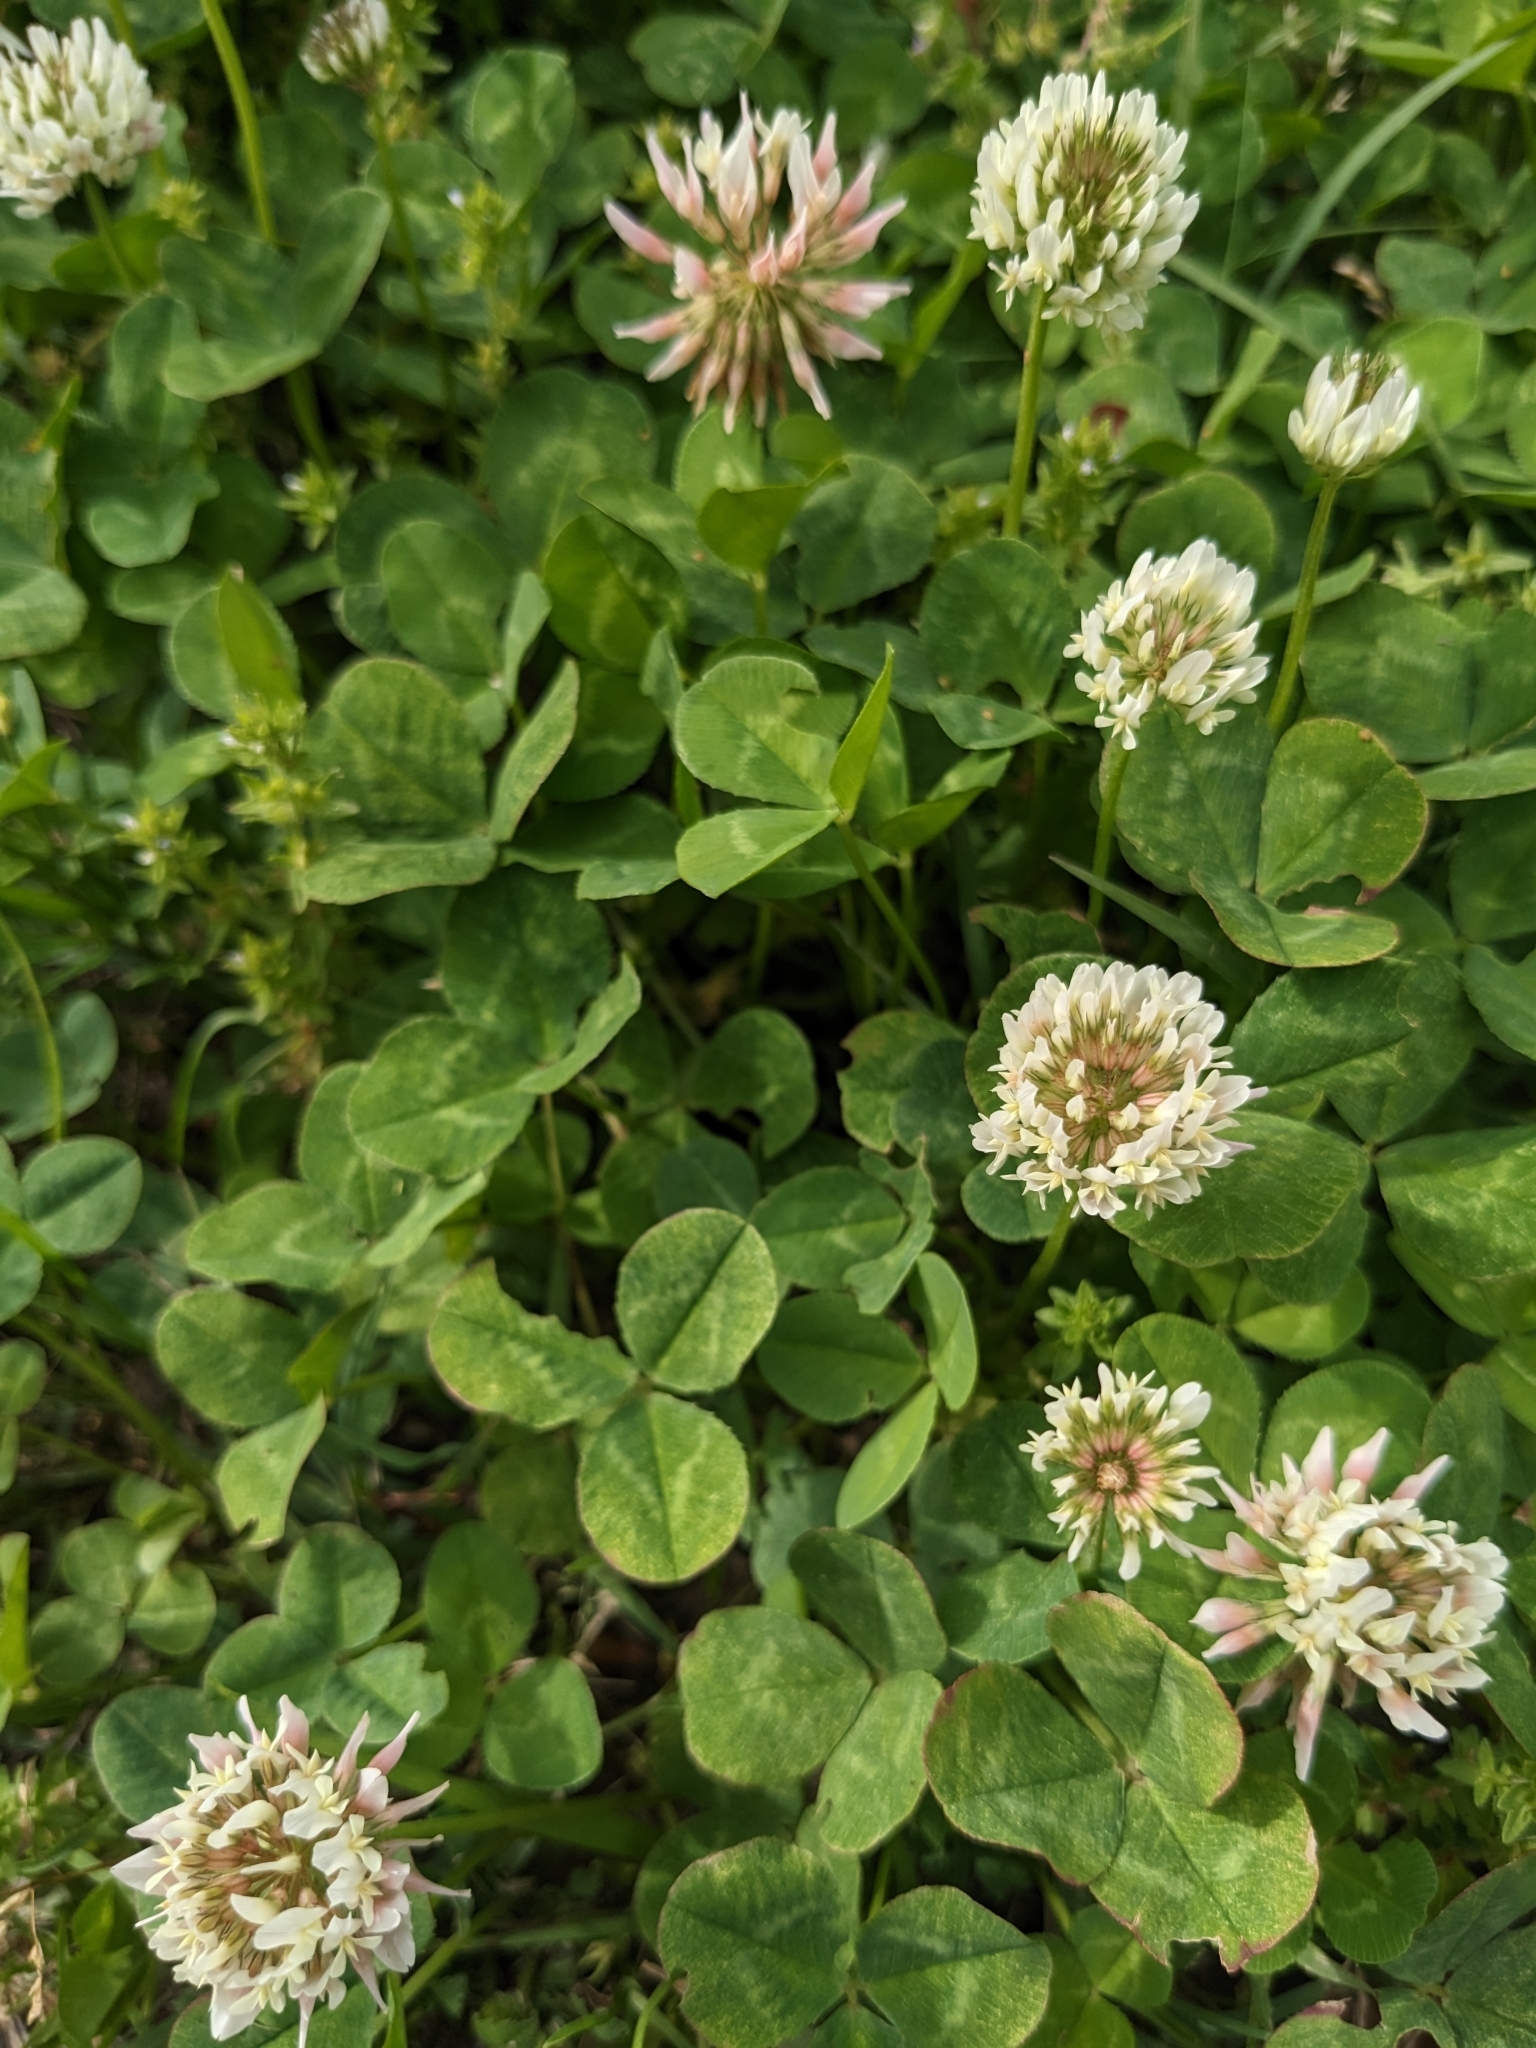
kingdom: Plantae
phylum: Tracheophyta
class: Magnoliopsida
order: Fabales
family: Fabaceae
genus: Trifolium
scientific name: Trifolium repens
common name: White clover
